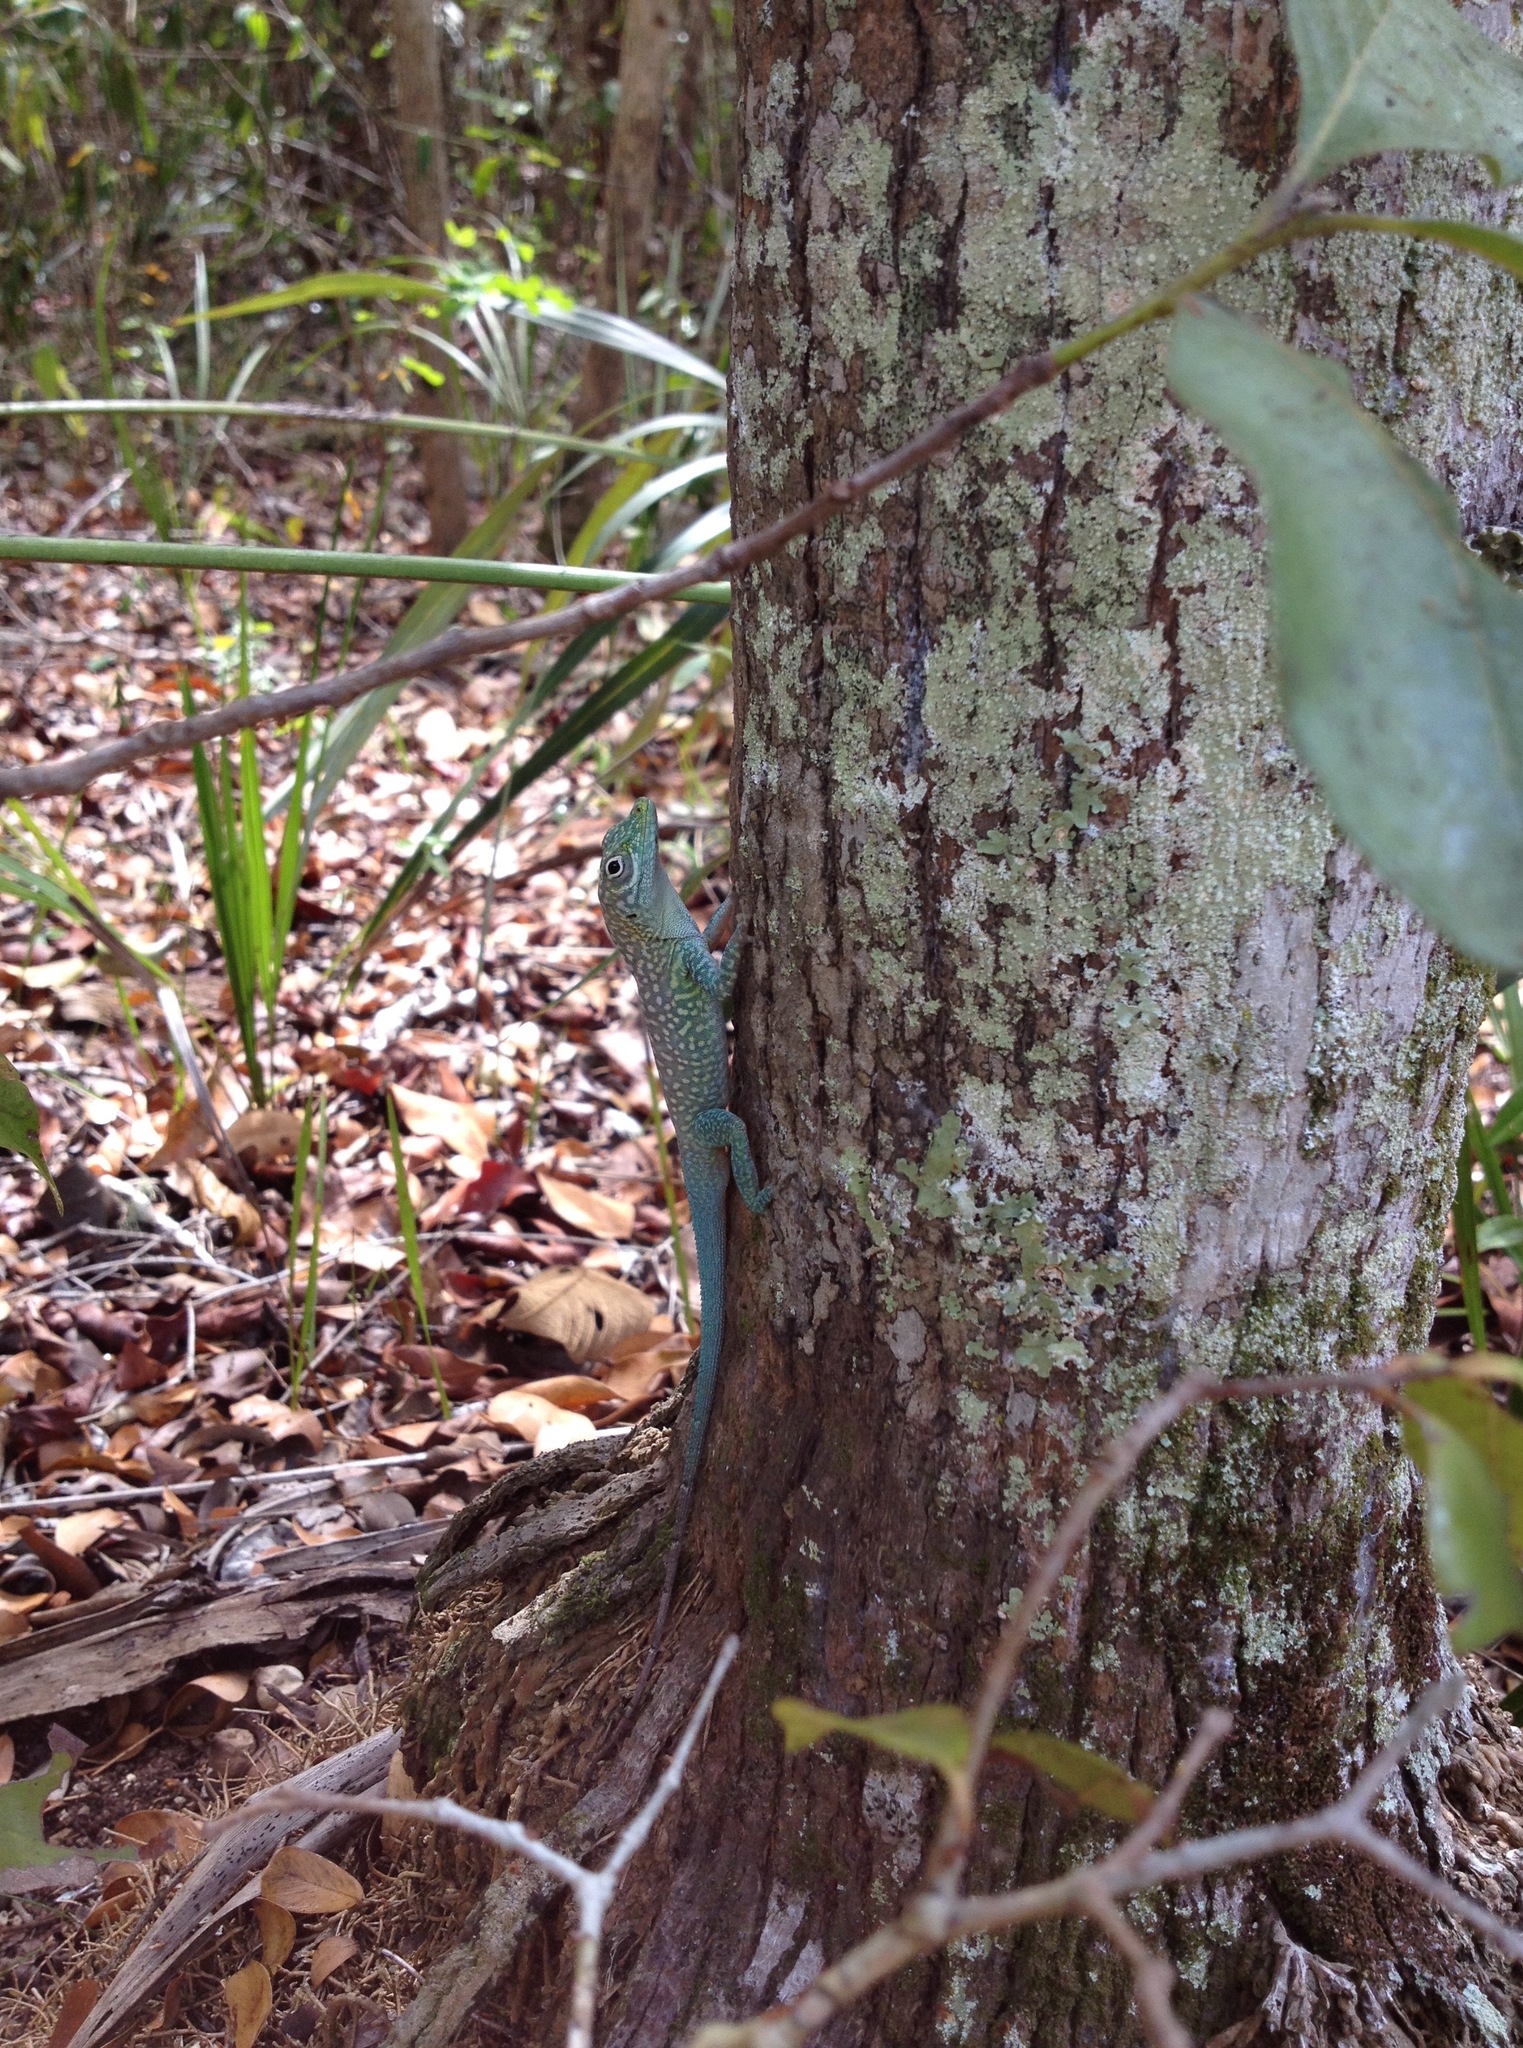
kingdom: Animalia
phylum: Chordata
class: Squamata
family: Dactyloidae
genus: Anolis
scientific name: Anolis conspersus
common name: Grand cayman anole
